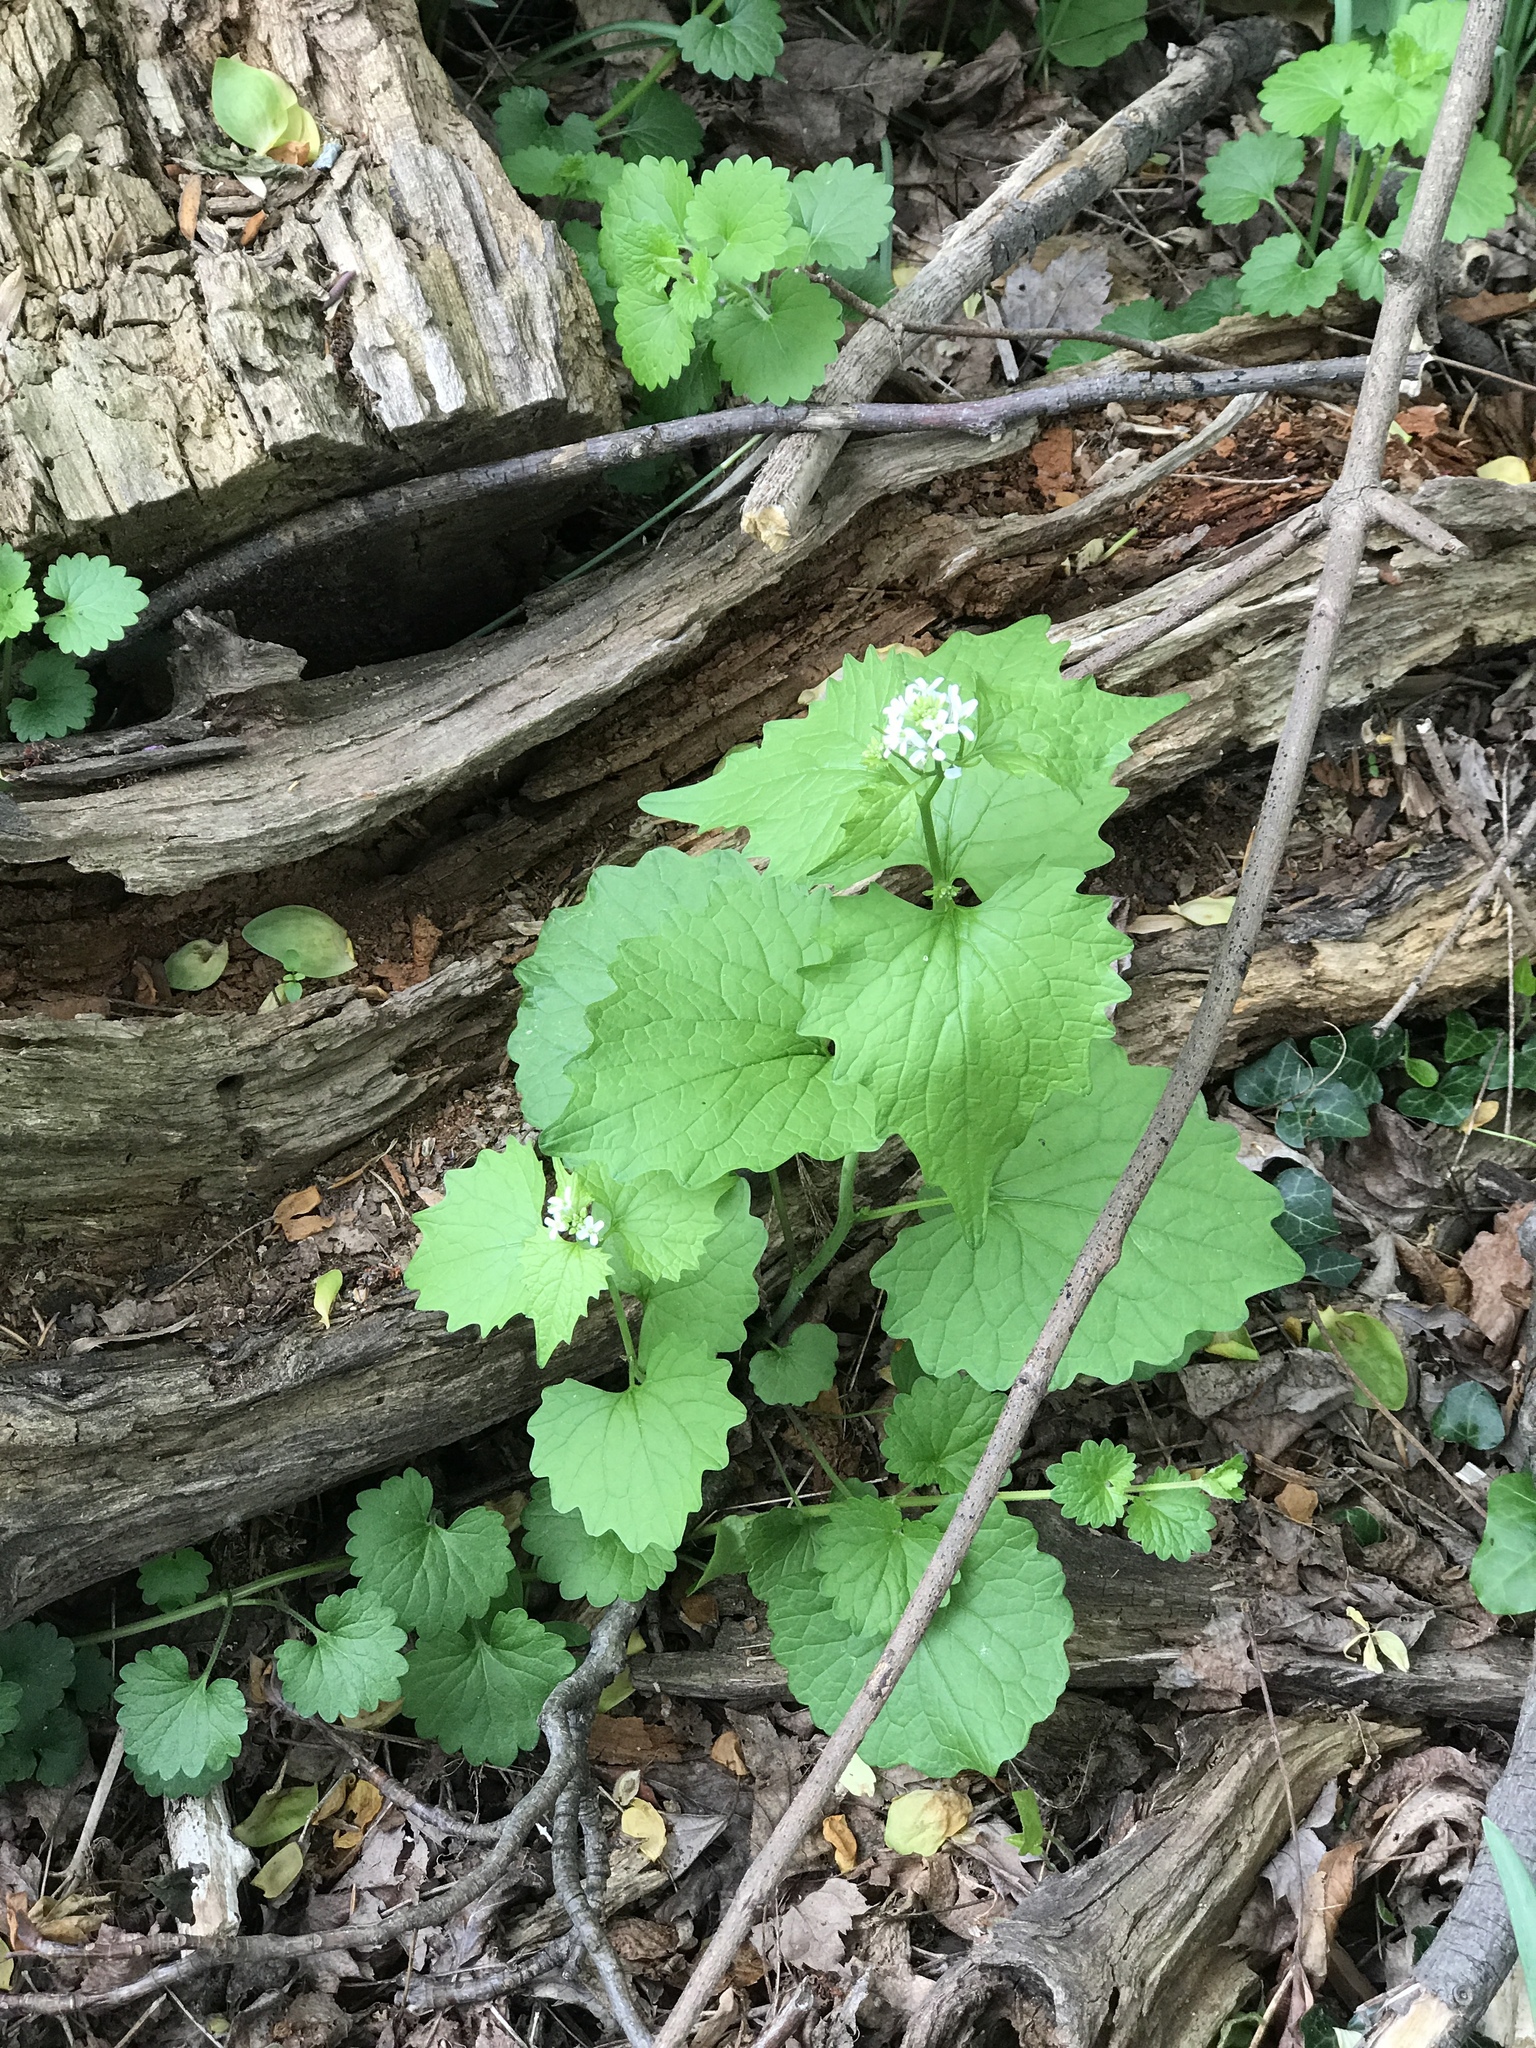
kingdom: Plantae
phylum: Tracheophyta
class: Magnoliopsida
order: Brassicales
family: Brassicaceae
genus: Alliaria
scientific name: Alliaria petiolata
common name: Garlic mustard
